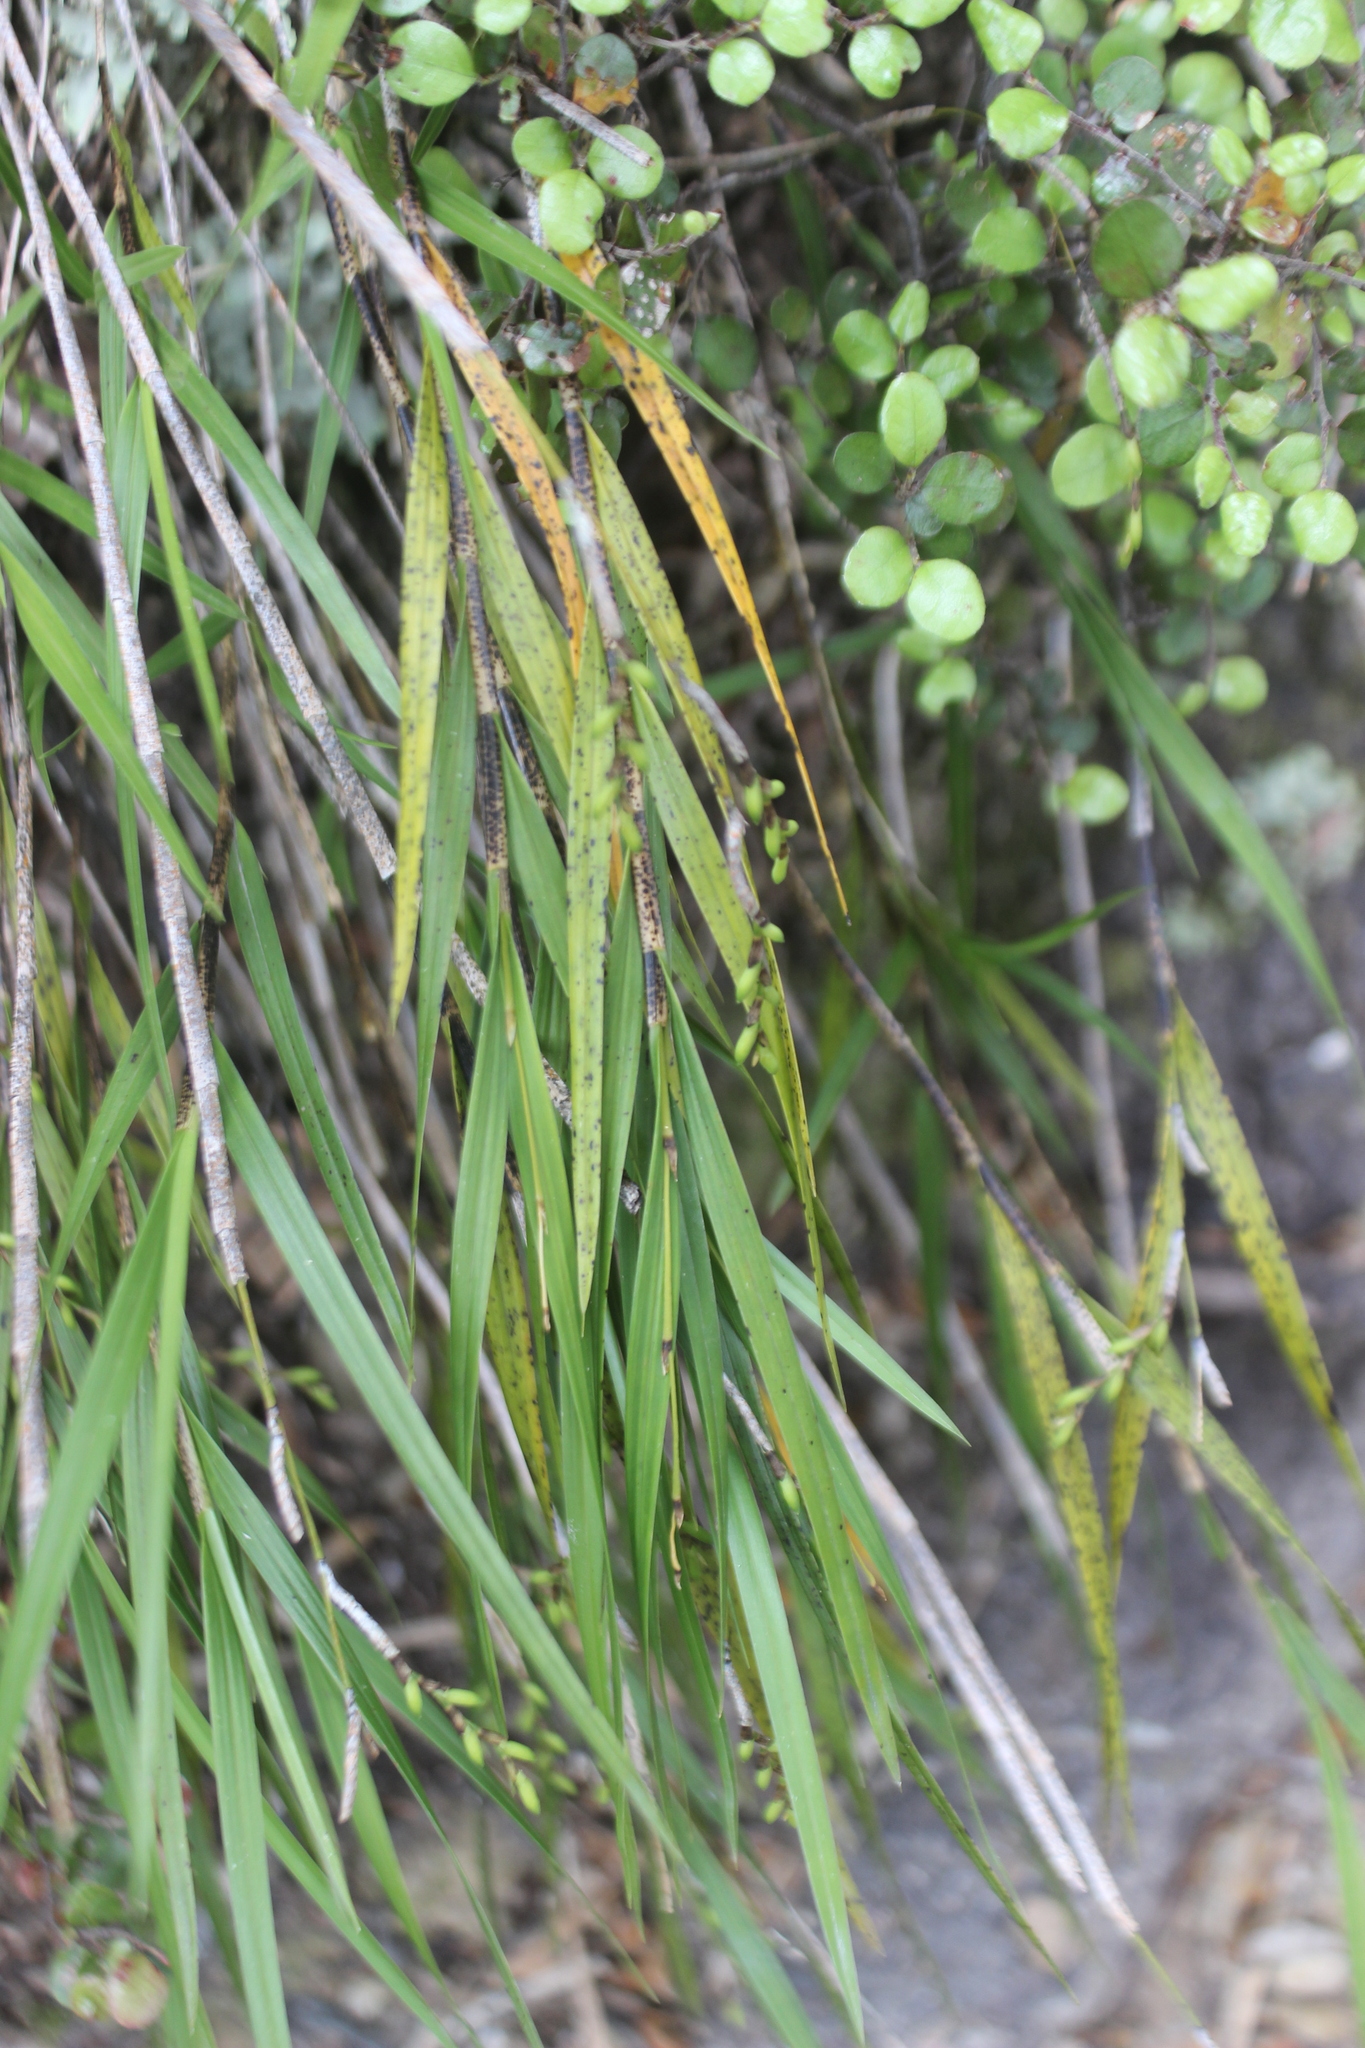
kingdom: Plantae
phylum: Tracheophyta
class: Liliopsida
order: Asparagales
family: Orchidaceae
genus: Earina
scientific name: Earina mucronata
